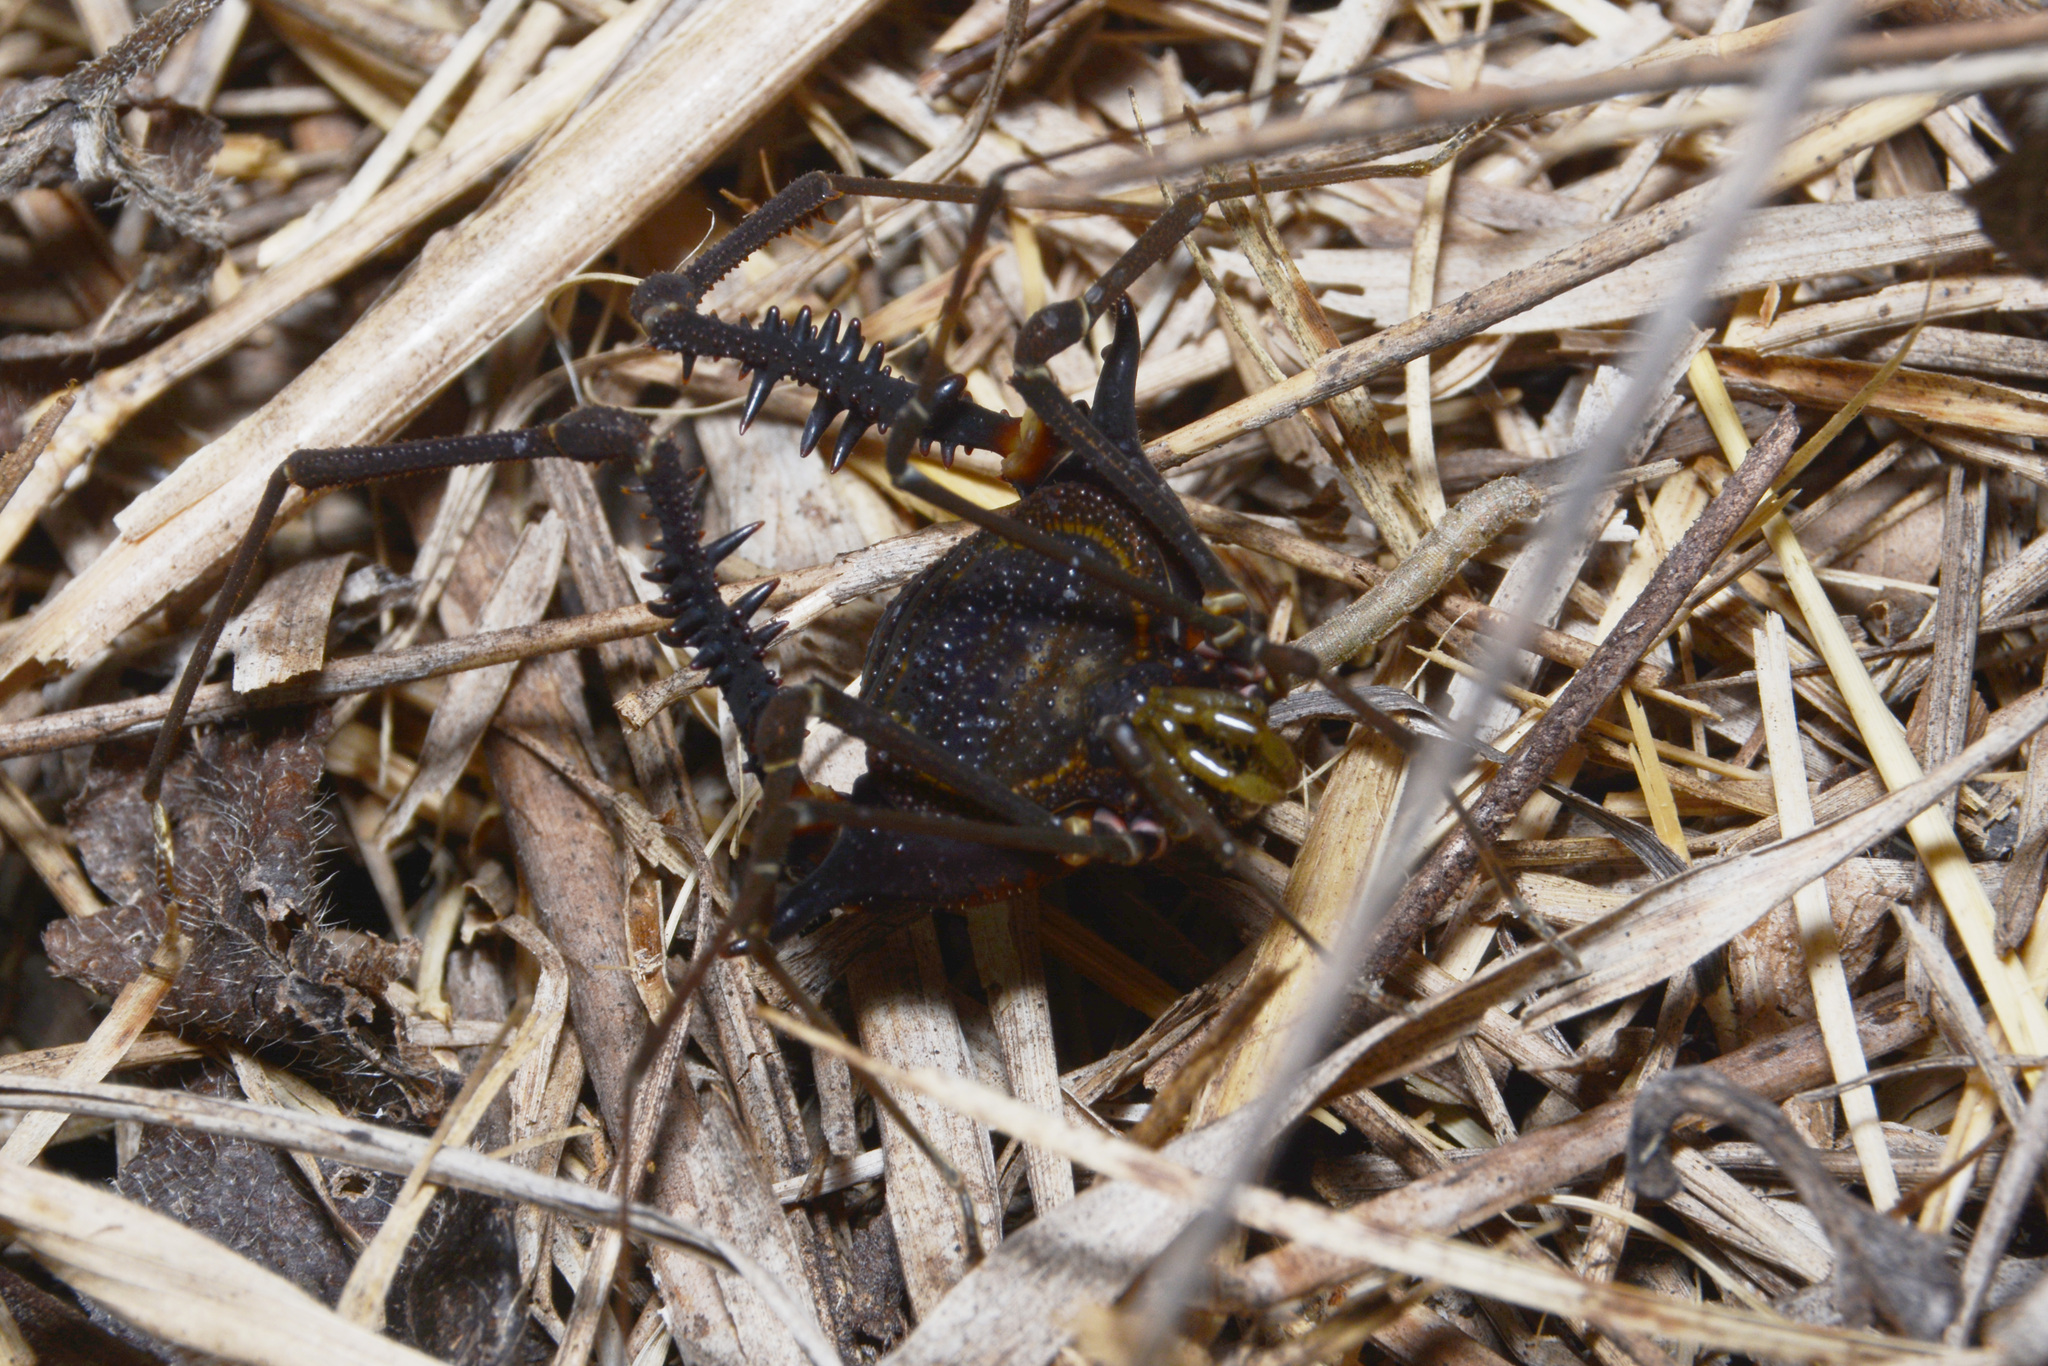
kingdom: Animalia
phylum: Arthropoda
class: Arachnida
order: Opiliones
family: Gonyleptidae
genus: Geraeocormobius
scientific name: Geraeocormobius sylvarum
